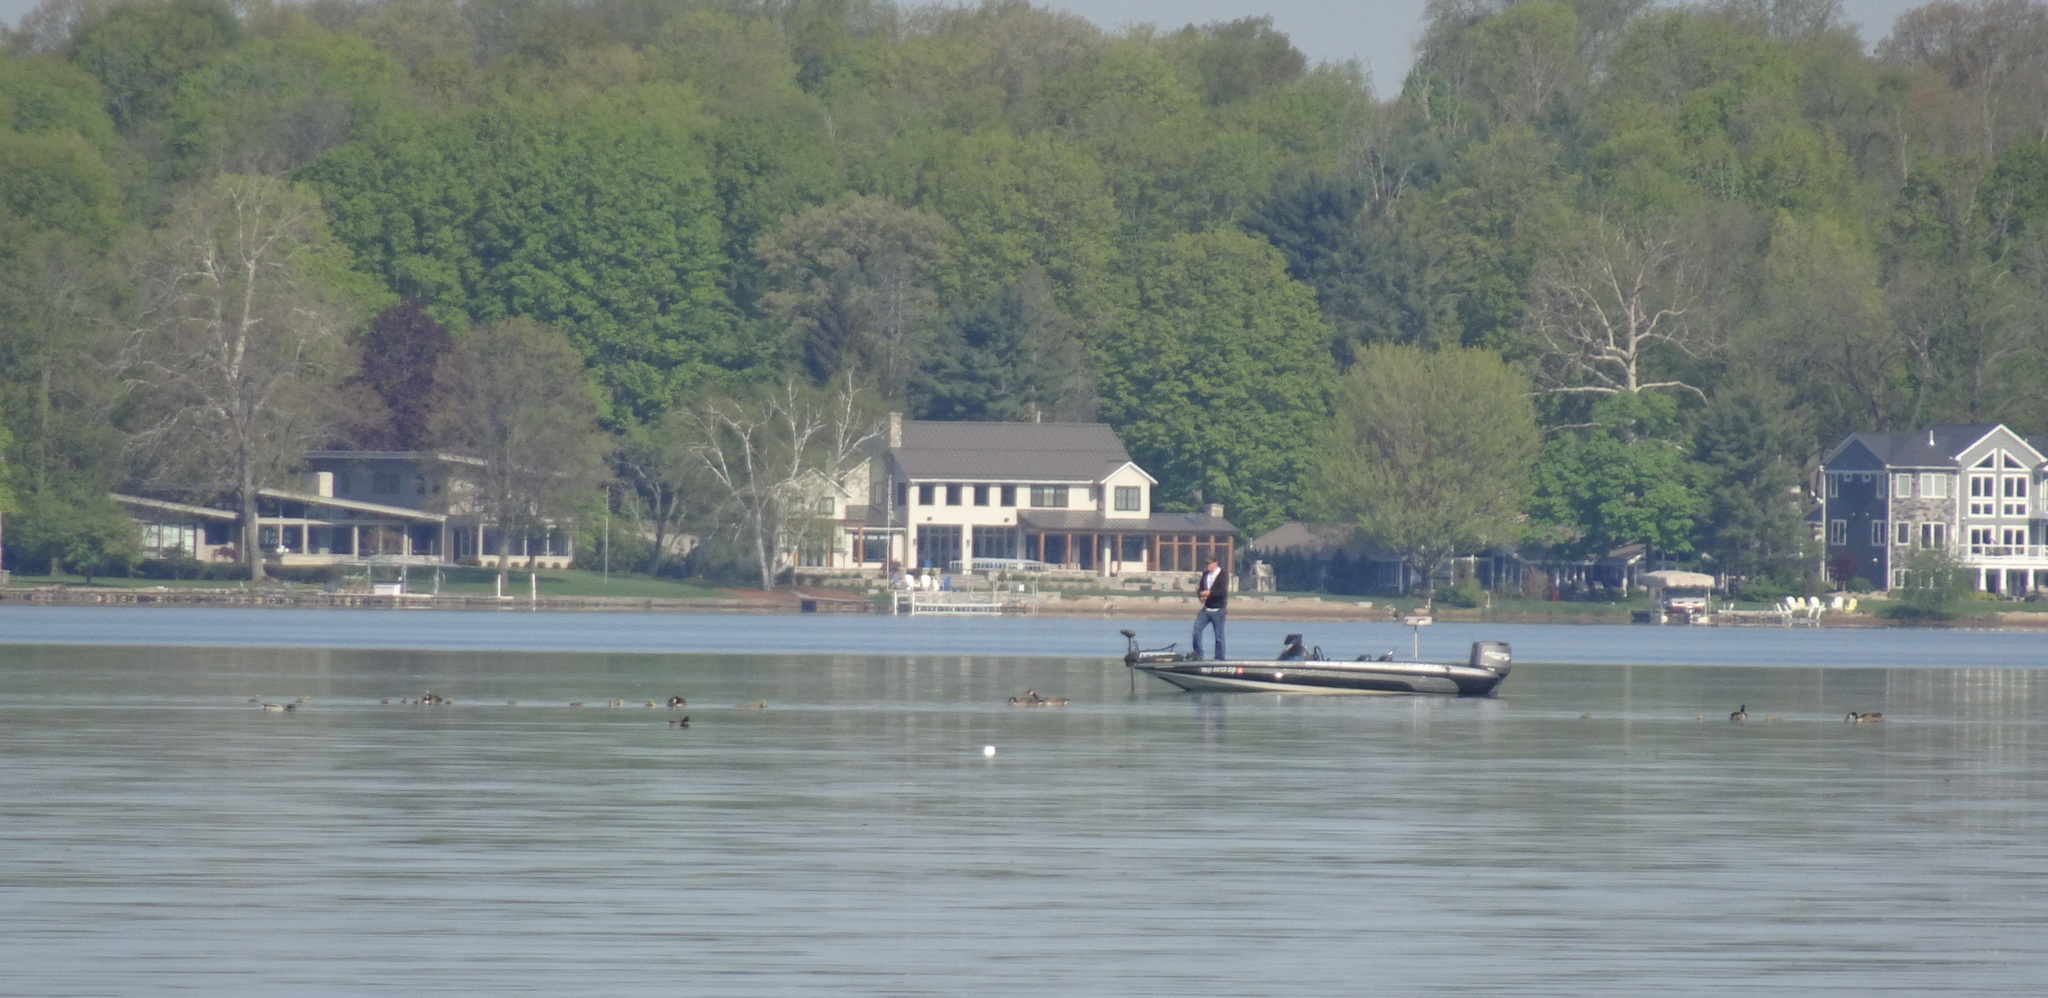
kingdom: Animalia
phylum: Chordata
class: Aves
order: Anseriformes
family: Anatidae
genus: Branta
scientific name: Branta canadensis
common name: Canada goose
